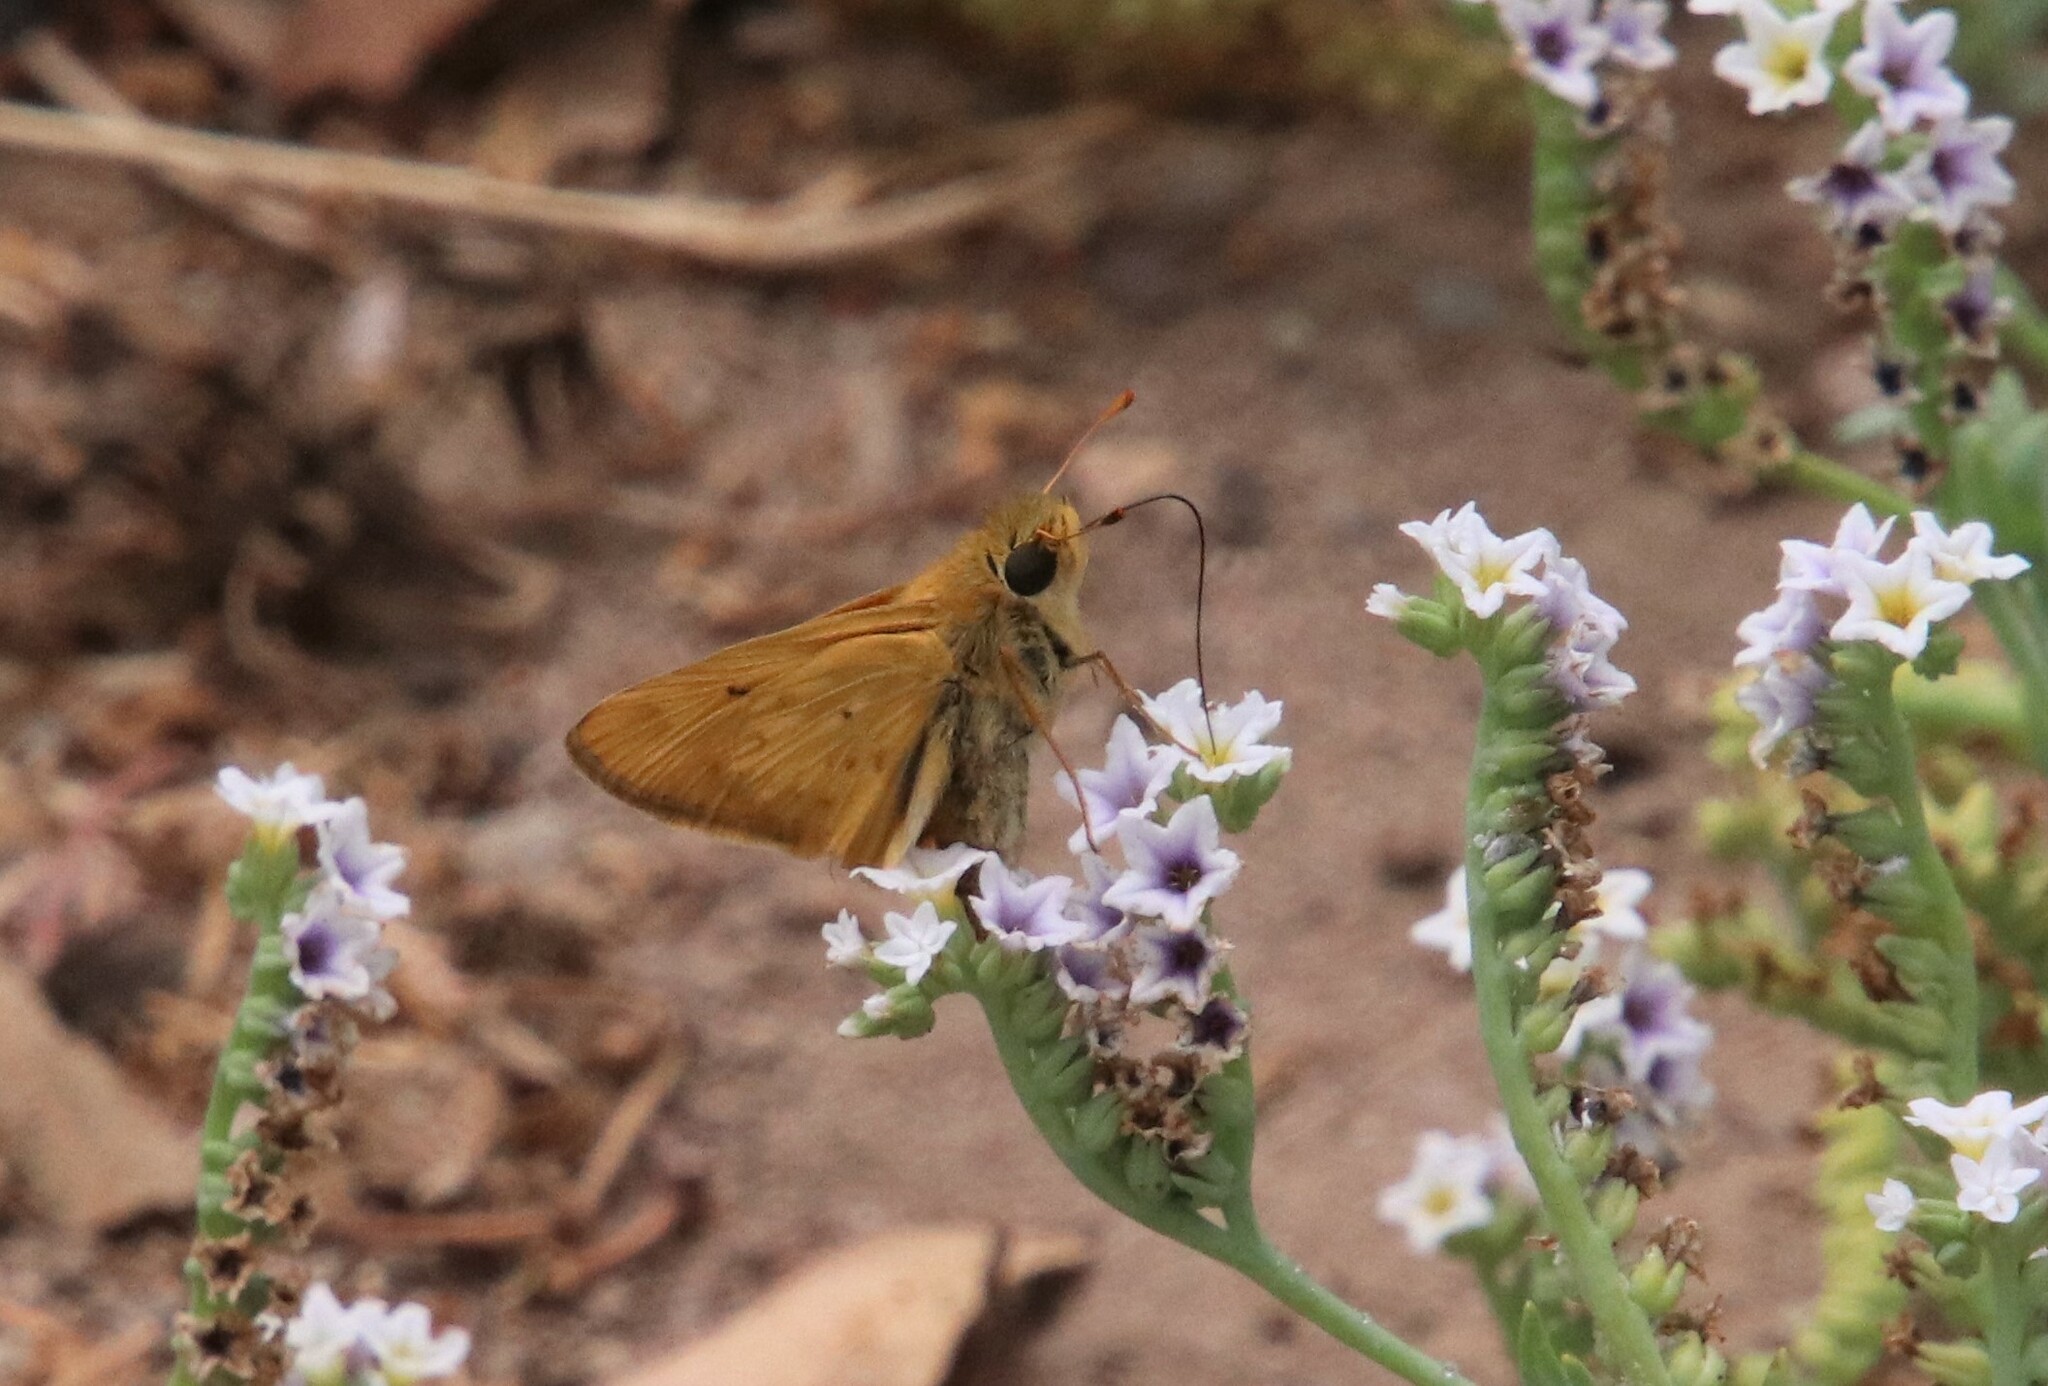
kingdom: Animalia
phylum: Arthropoda
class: Insecta
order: Lepidoptera
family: Hesperiidae
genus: Hylephila
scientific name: Hylephila phyleus
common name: Fiery skipper
